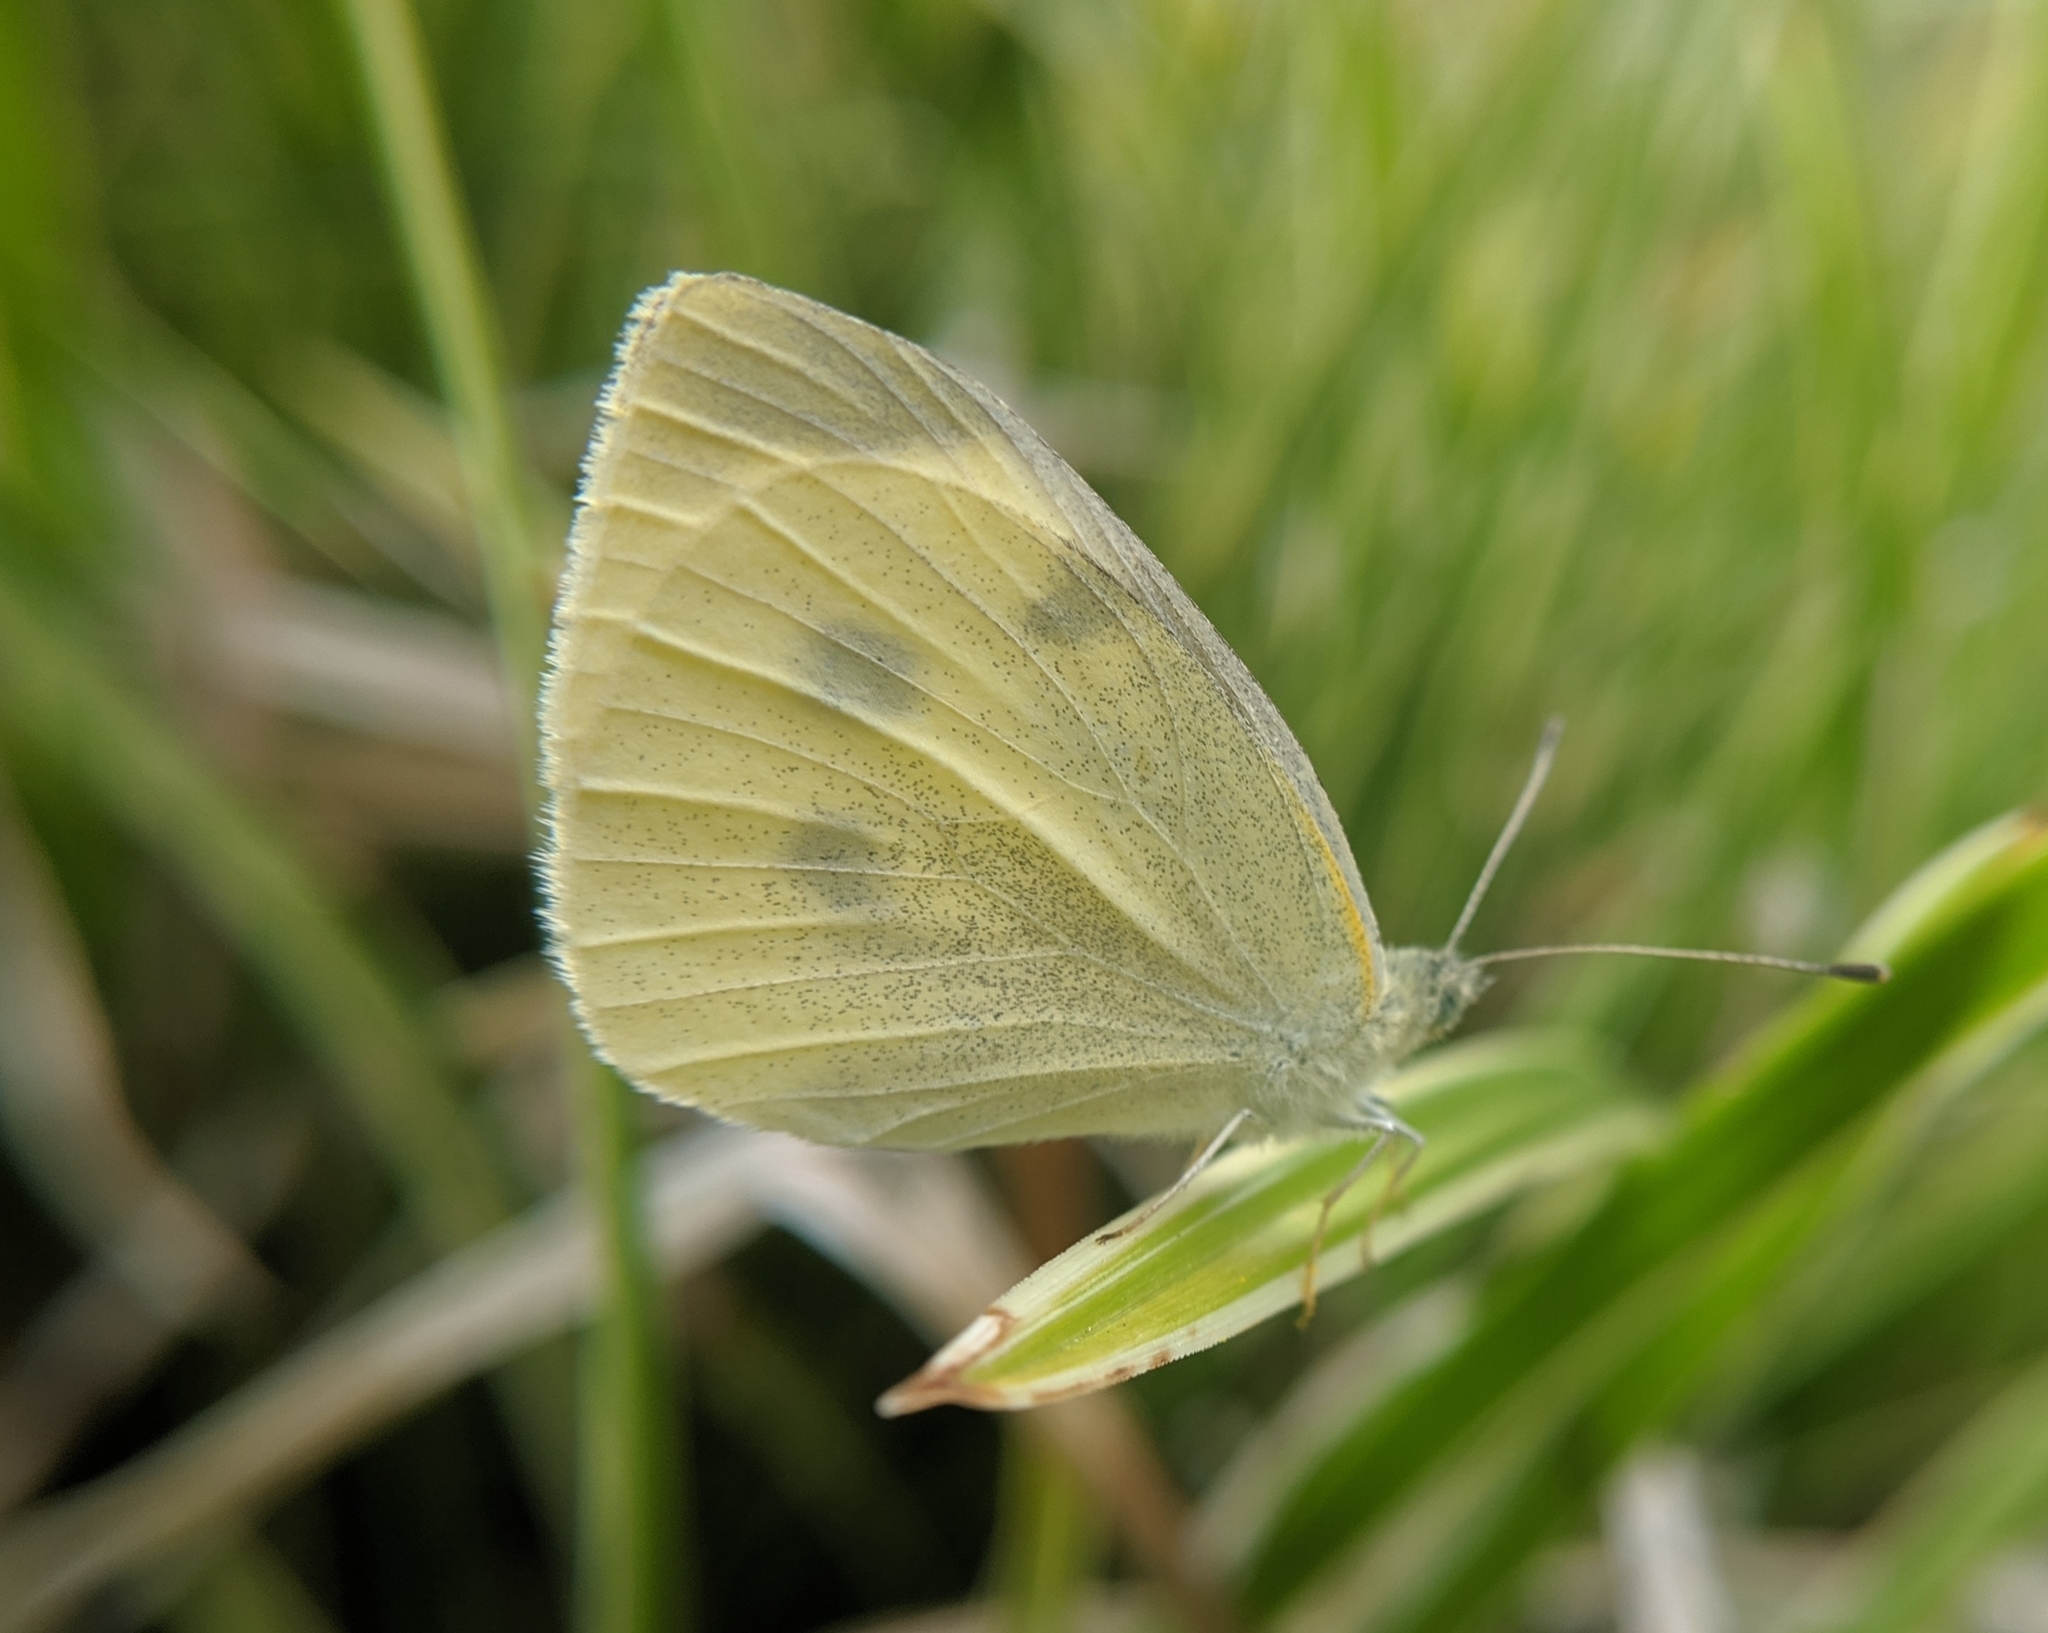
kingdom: Animalia
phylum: Arthropoda
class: Insecta
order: Lepidoptera
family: Pieridae
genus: Pieris
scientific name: Pieris rapae
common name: Small white
